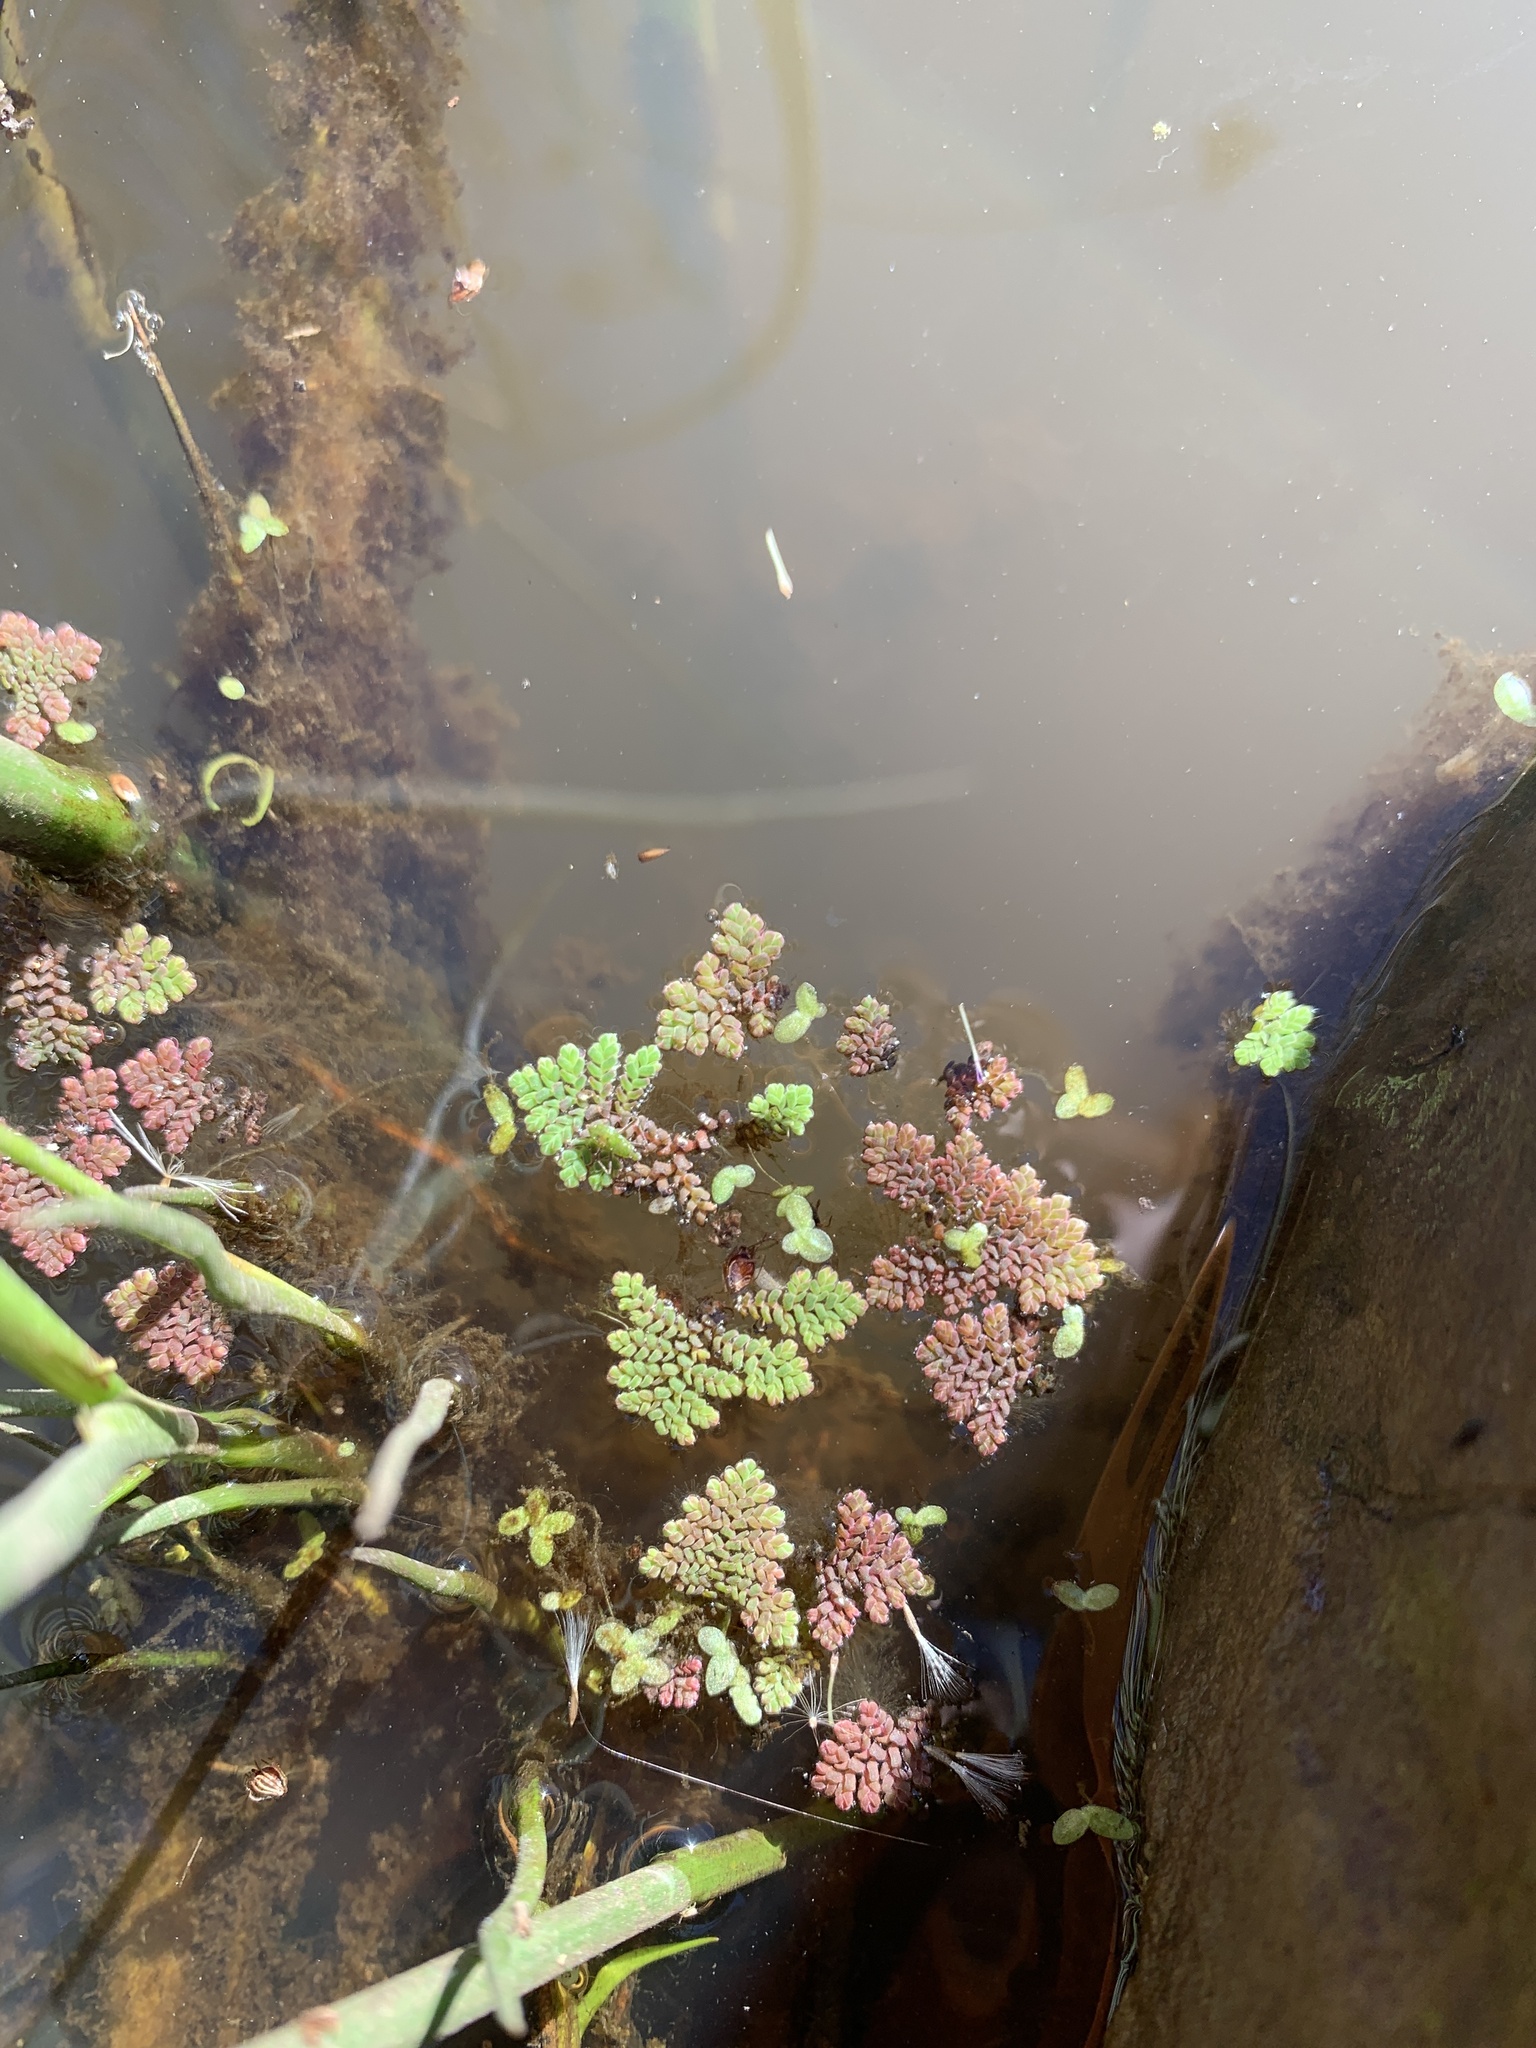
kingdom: Plantae
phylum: Tracheophyta
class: Polypodiopsida
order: Salviniales
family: Salviniaceae
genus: Azolla
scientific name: Azolla pinnata
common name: Ferny azolla
